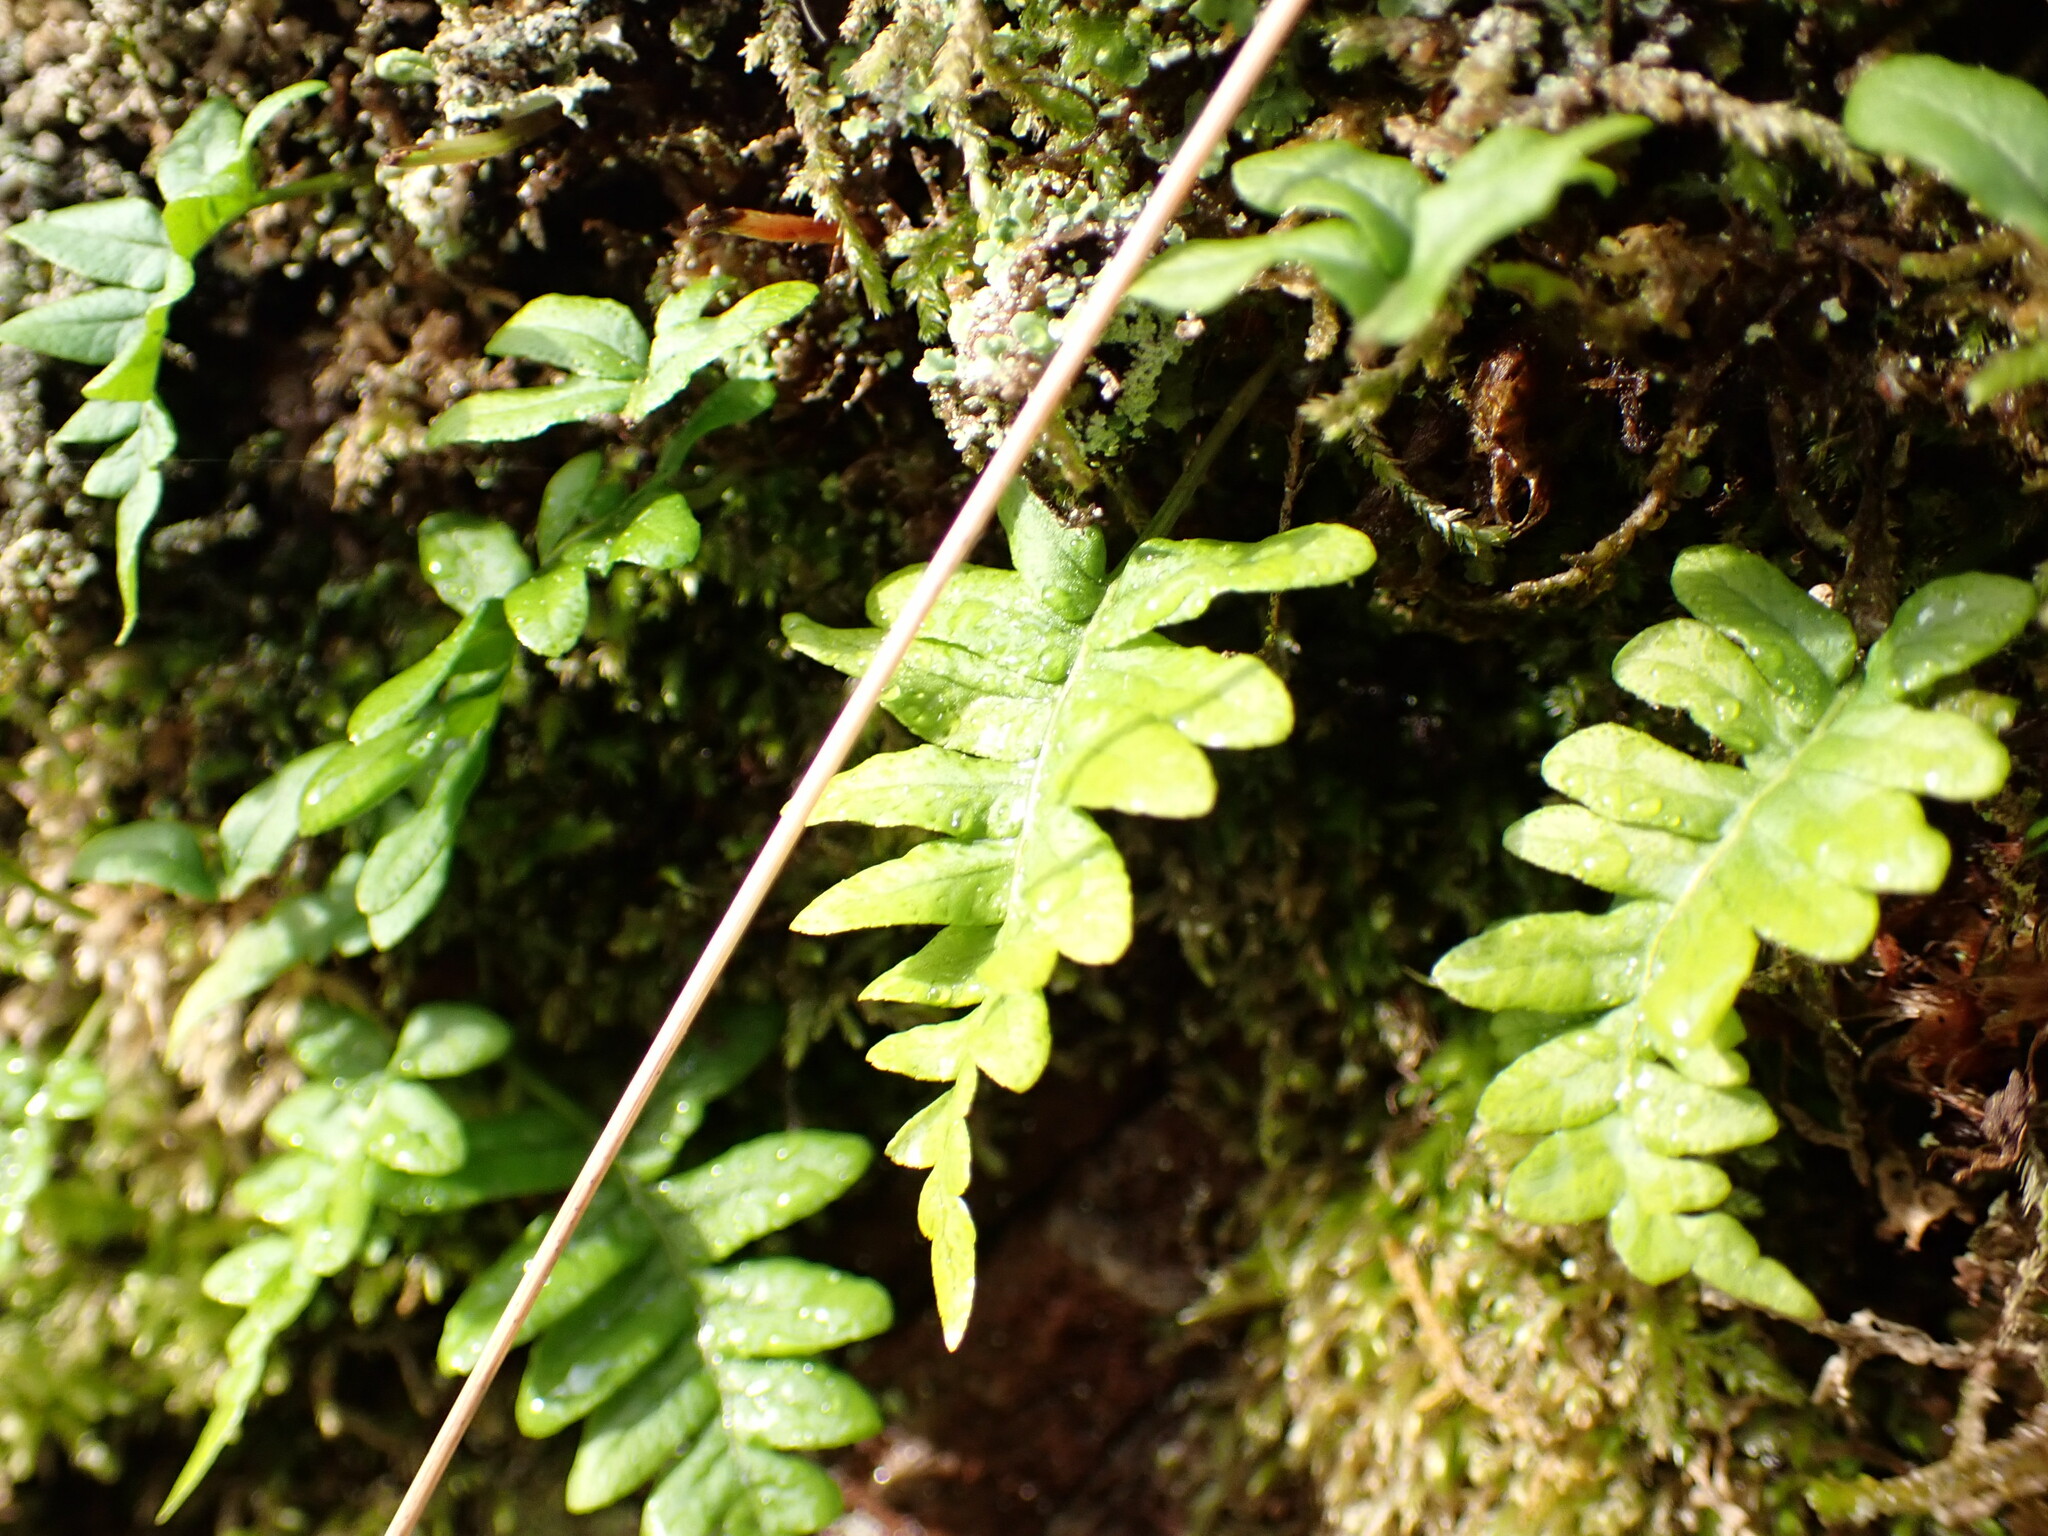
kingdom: Plantae
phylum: Tracheophyta
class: Polypodiopsida
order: Polypodiales
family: Polypodiaceae
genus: Polypodium
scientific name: Polypodium glycyrrhiza
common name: Licorice fern
